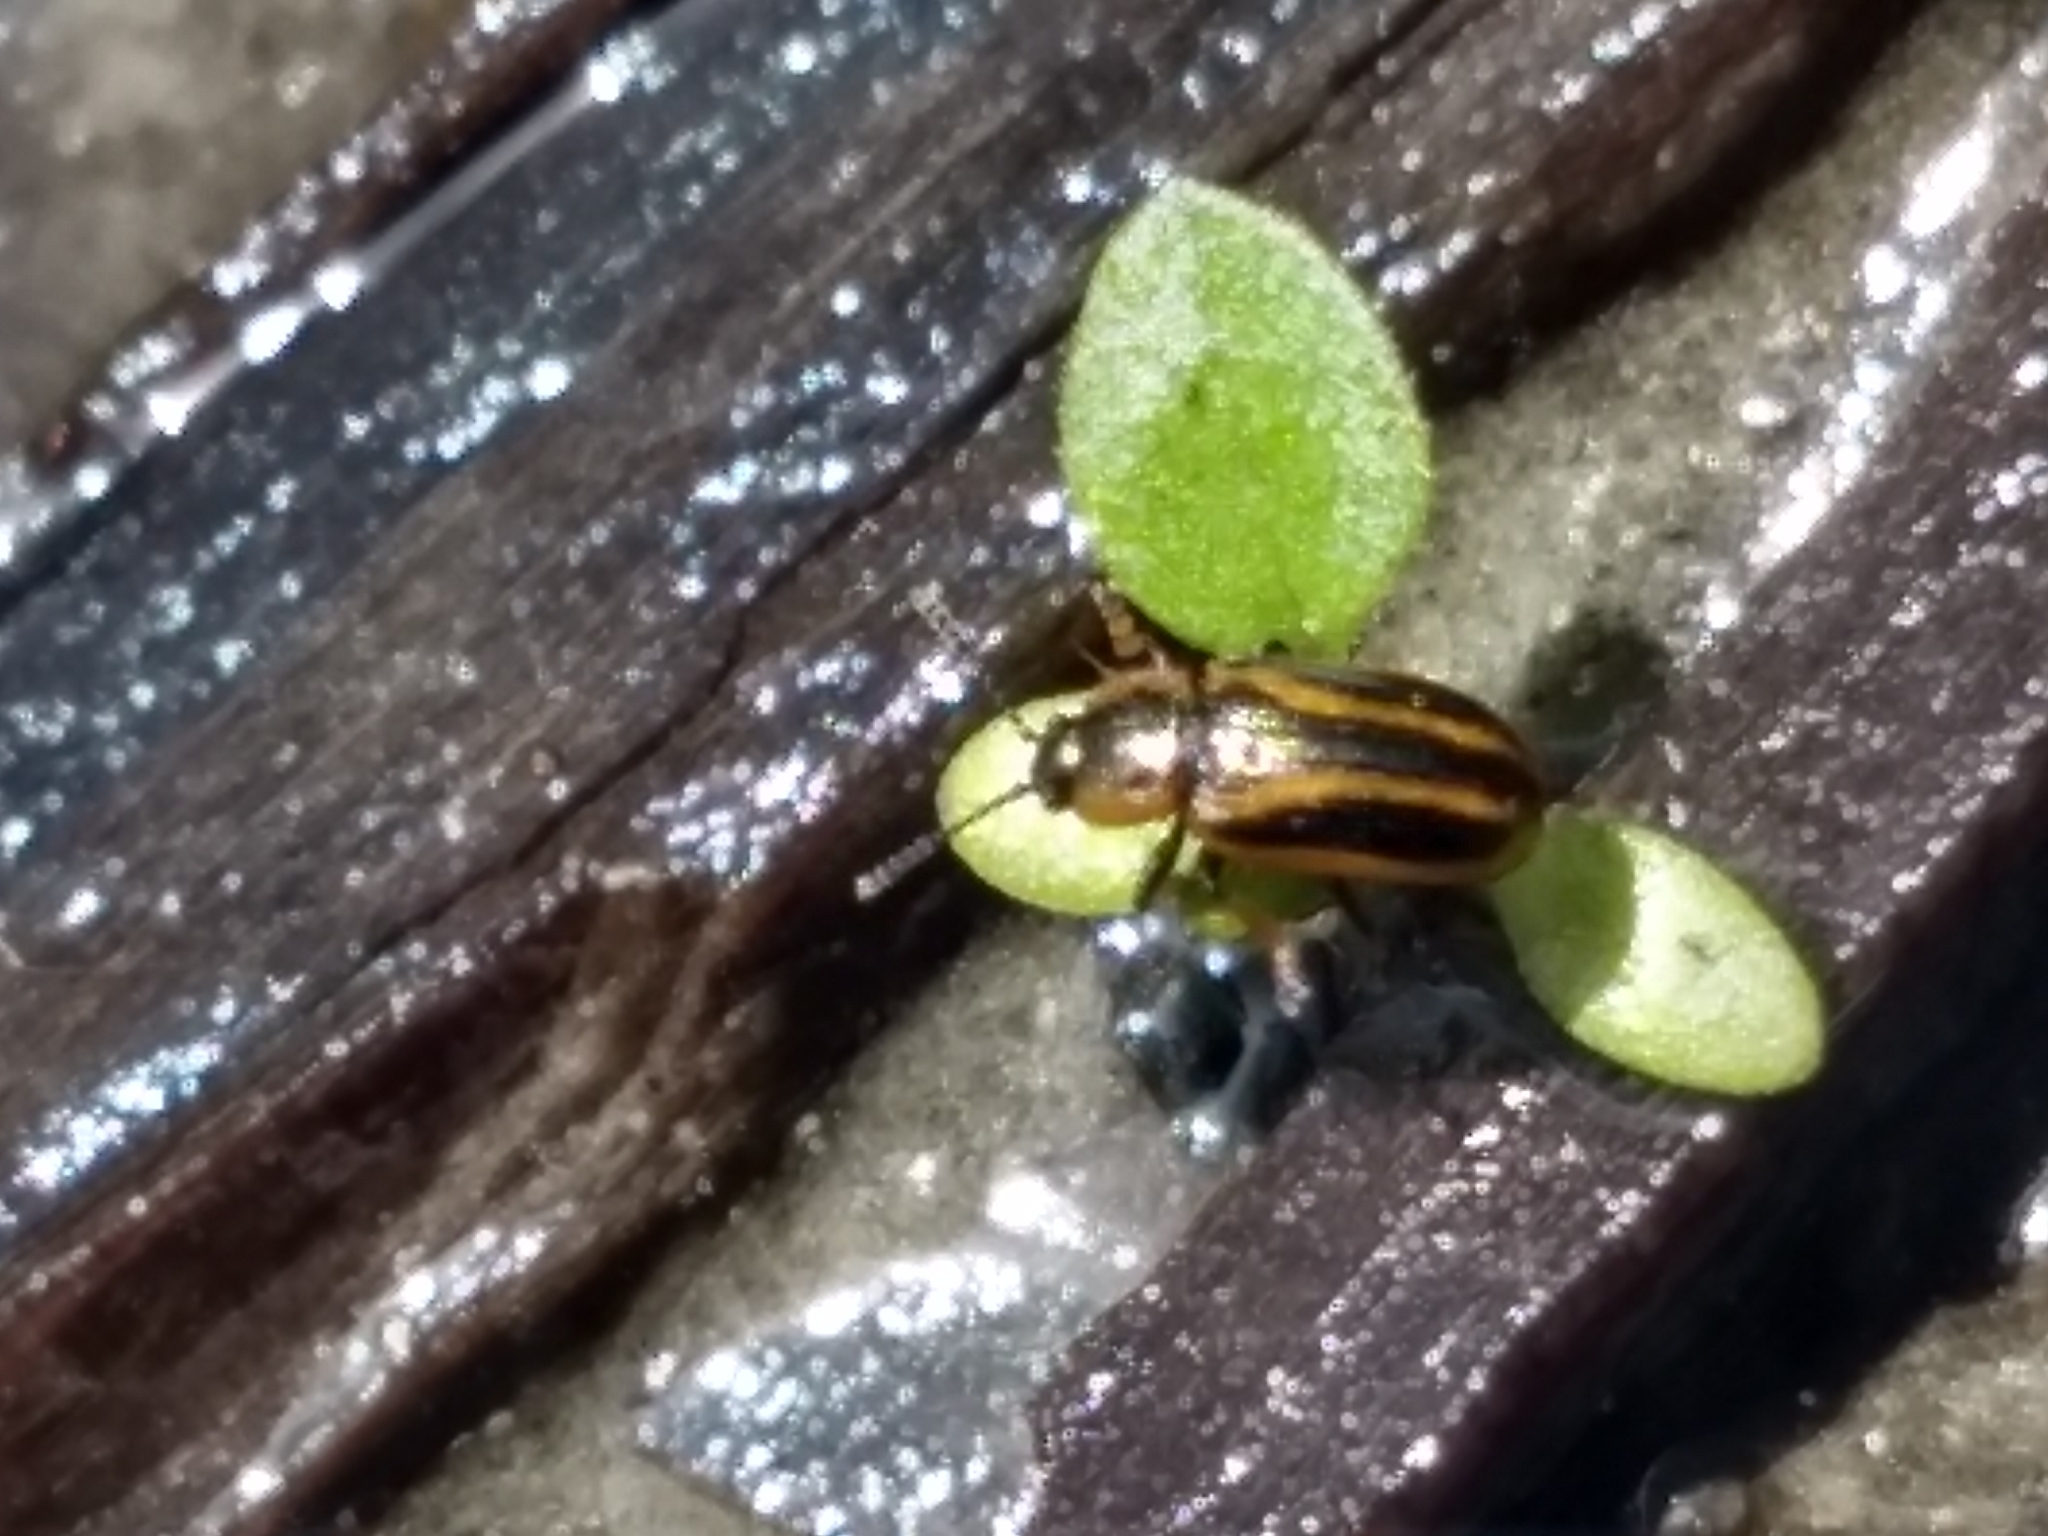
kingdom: Animalia
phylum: Arthropoda
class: Insecta
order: Coleoptera
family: Chrysomelidae
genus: Prasocuris
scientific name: Prasocuris vittata
